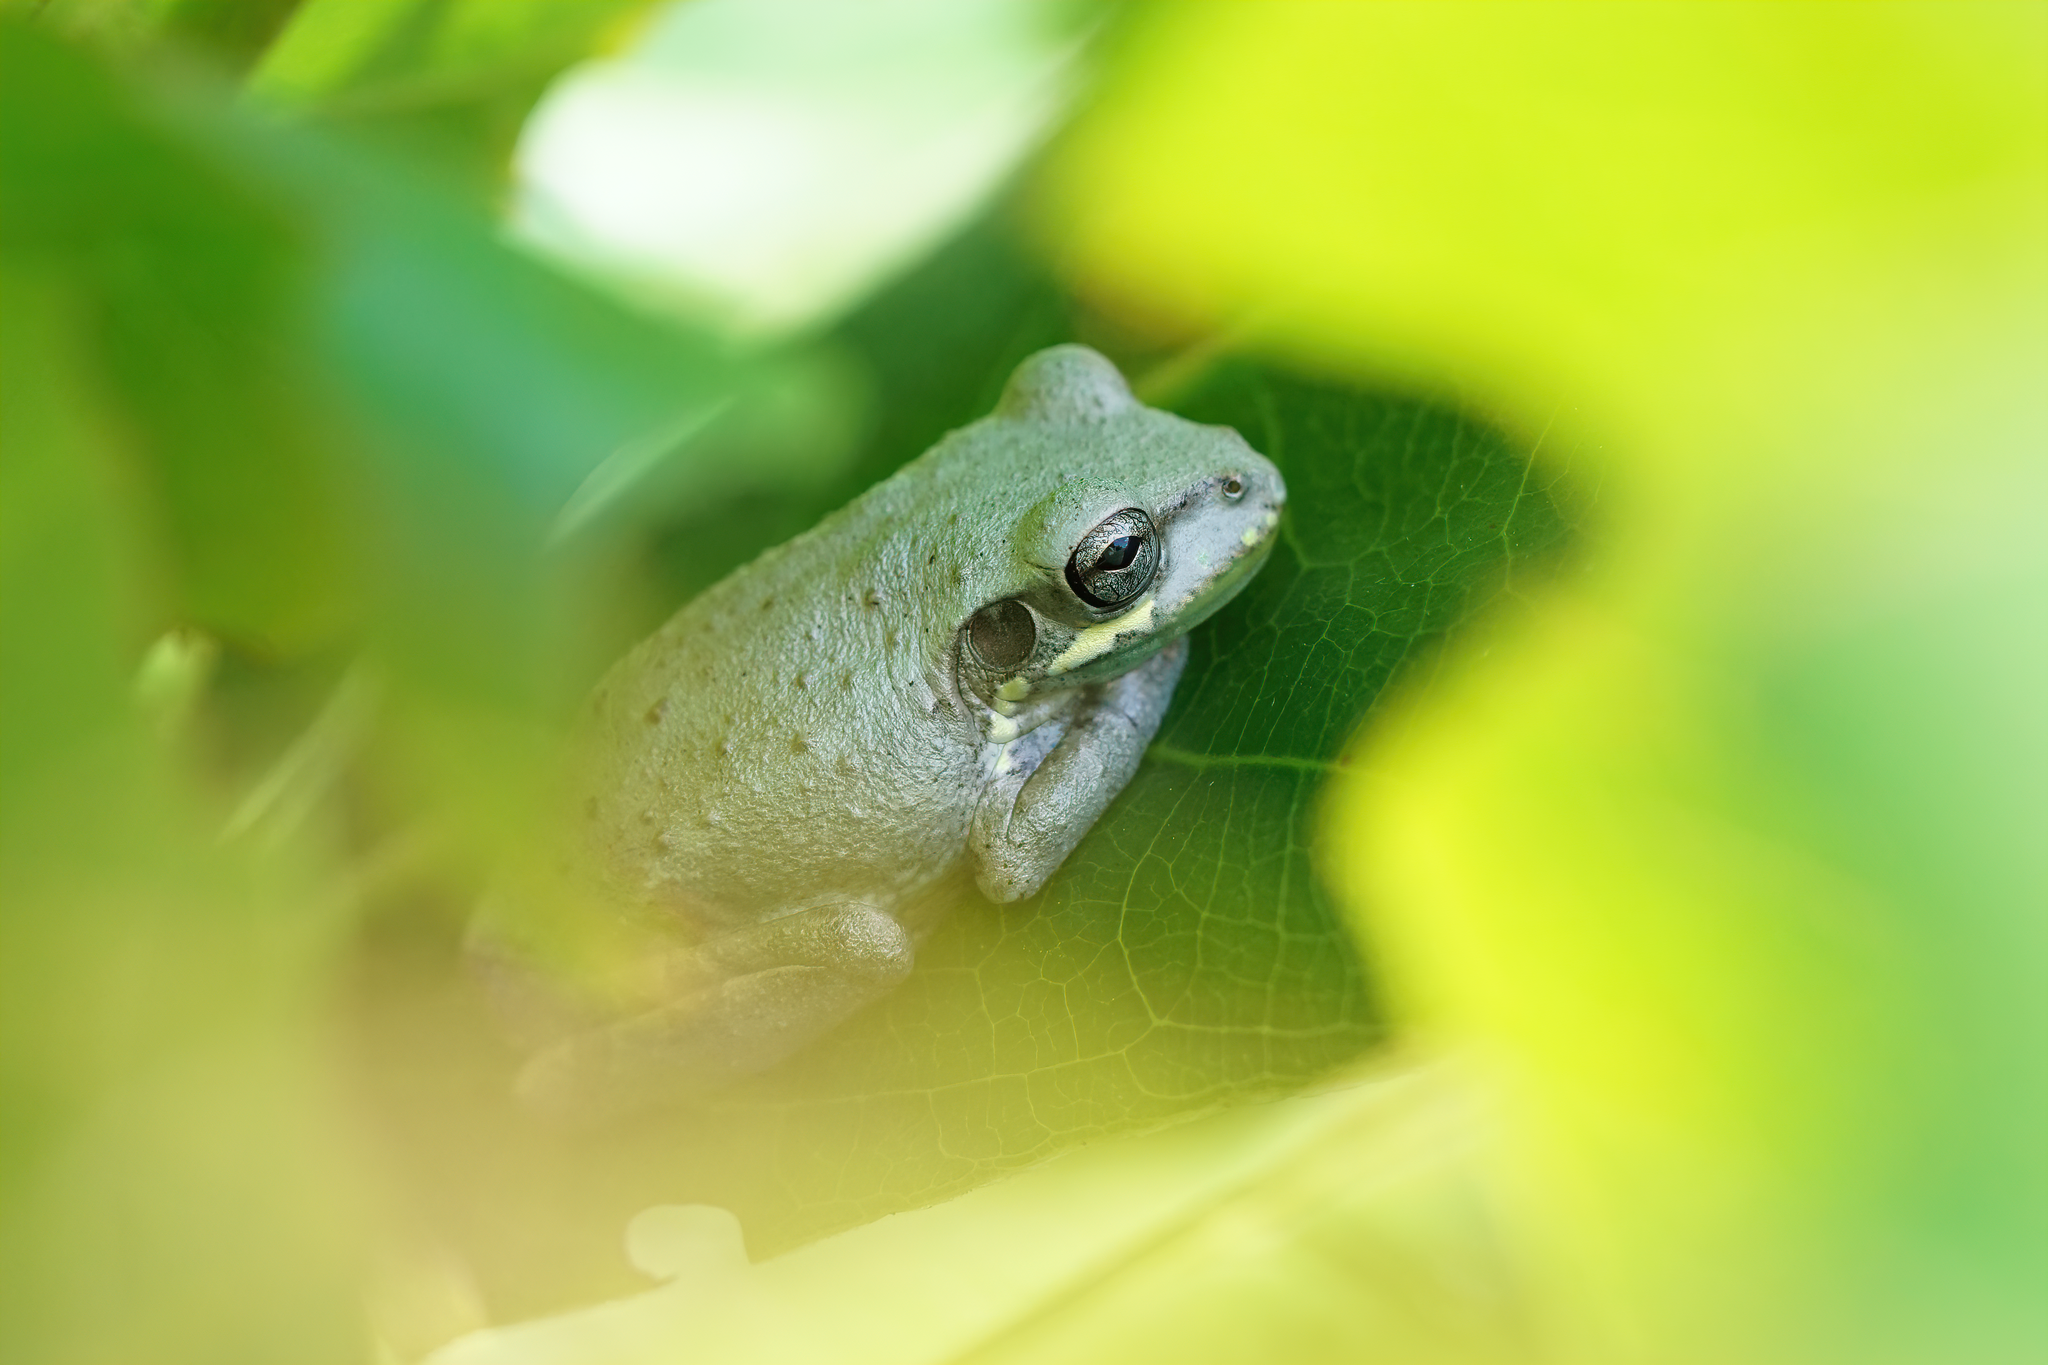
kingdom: Animalia
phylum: Chordata
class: Amphibia
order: Anura
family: Hylidae
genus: Osteopilus
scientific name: Osteopilus septentrionalis
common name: Cuban treefrog
